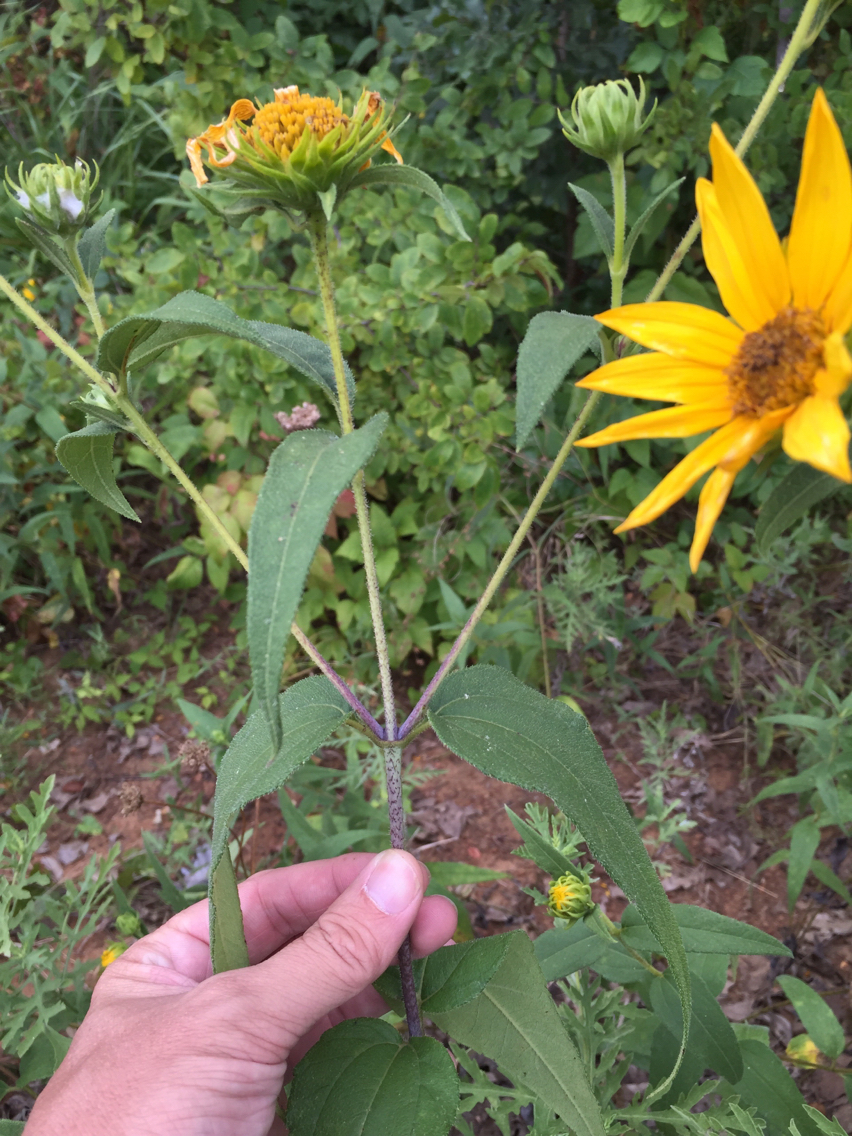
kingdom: Plantae
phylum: Tracheophyta
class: Magnoliopsida
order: Asterales
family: Asteraceae
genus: Helianthus
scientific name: Helianthus hirsutus
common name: Hairy sunflower
